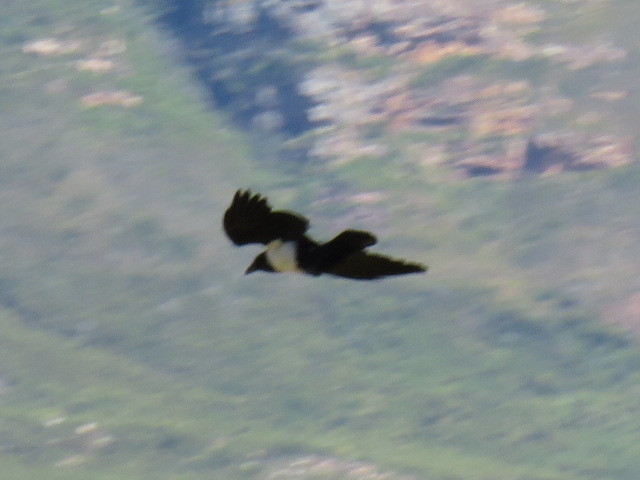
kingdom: Animalia
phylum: Chordata
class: Aves
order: Passeriformes
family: Corvidae
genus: Corvus
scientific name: Corvus albus
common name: Pied crow
